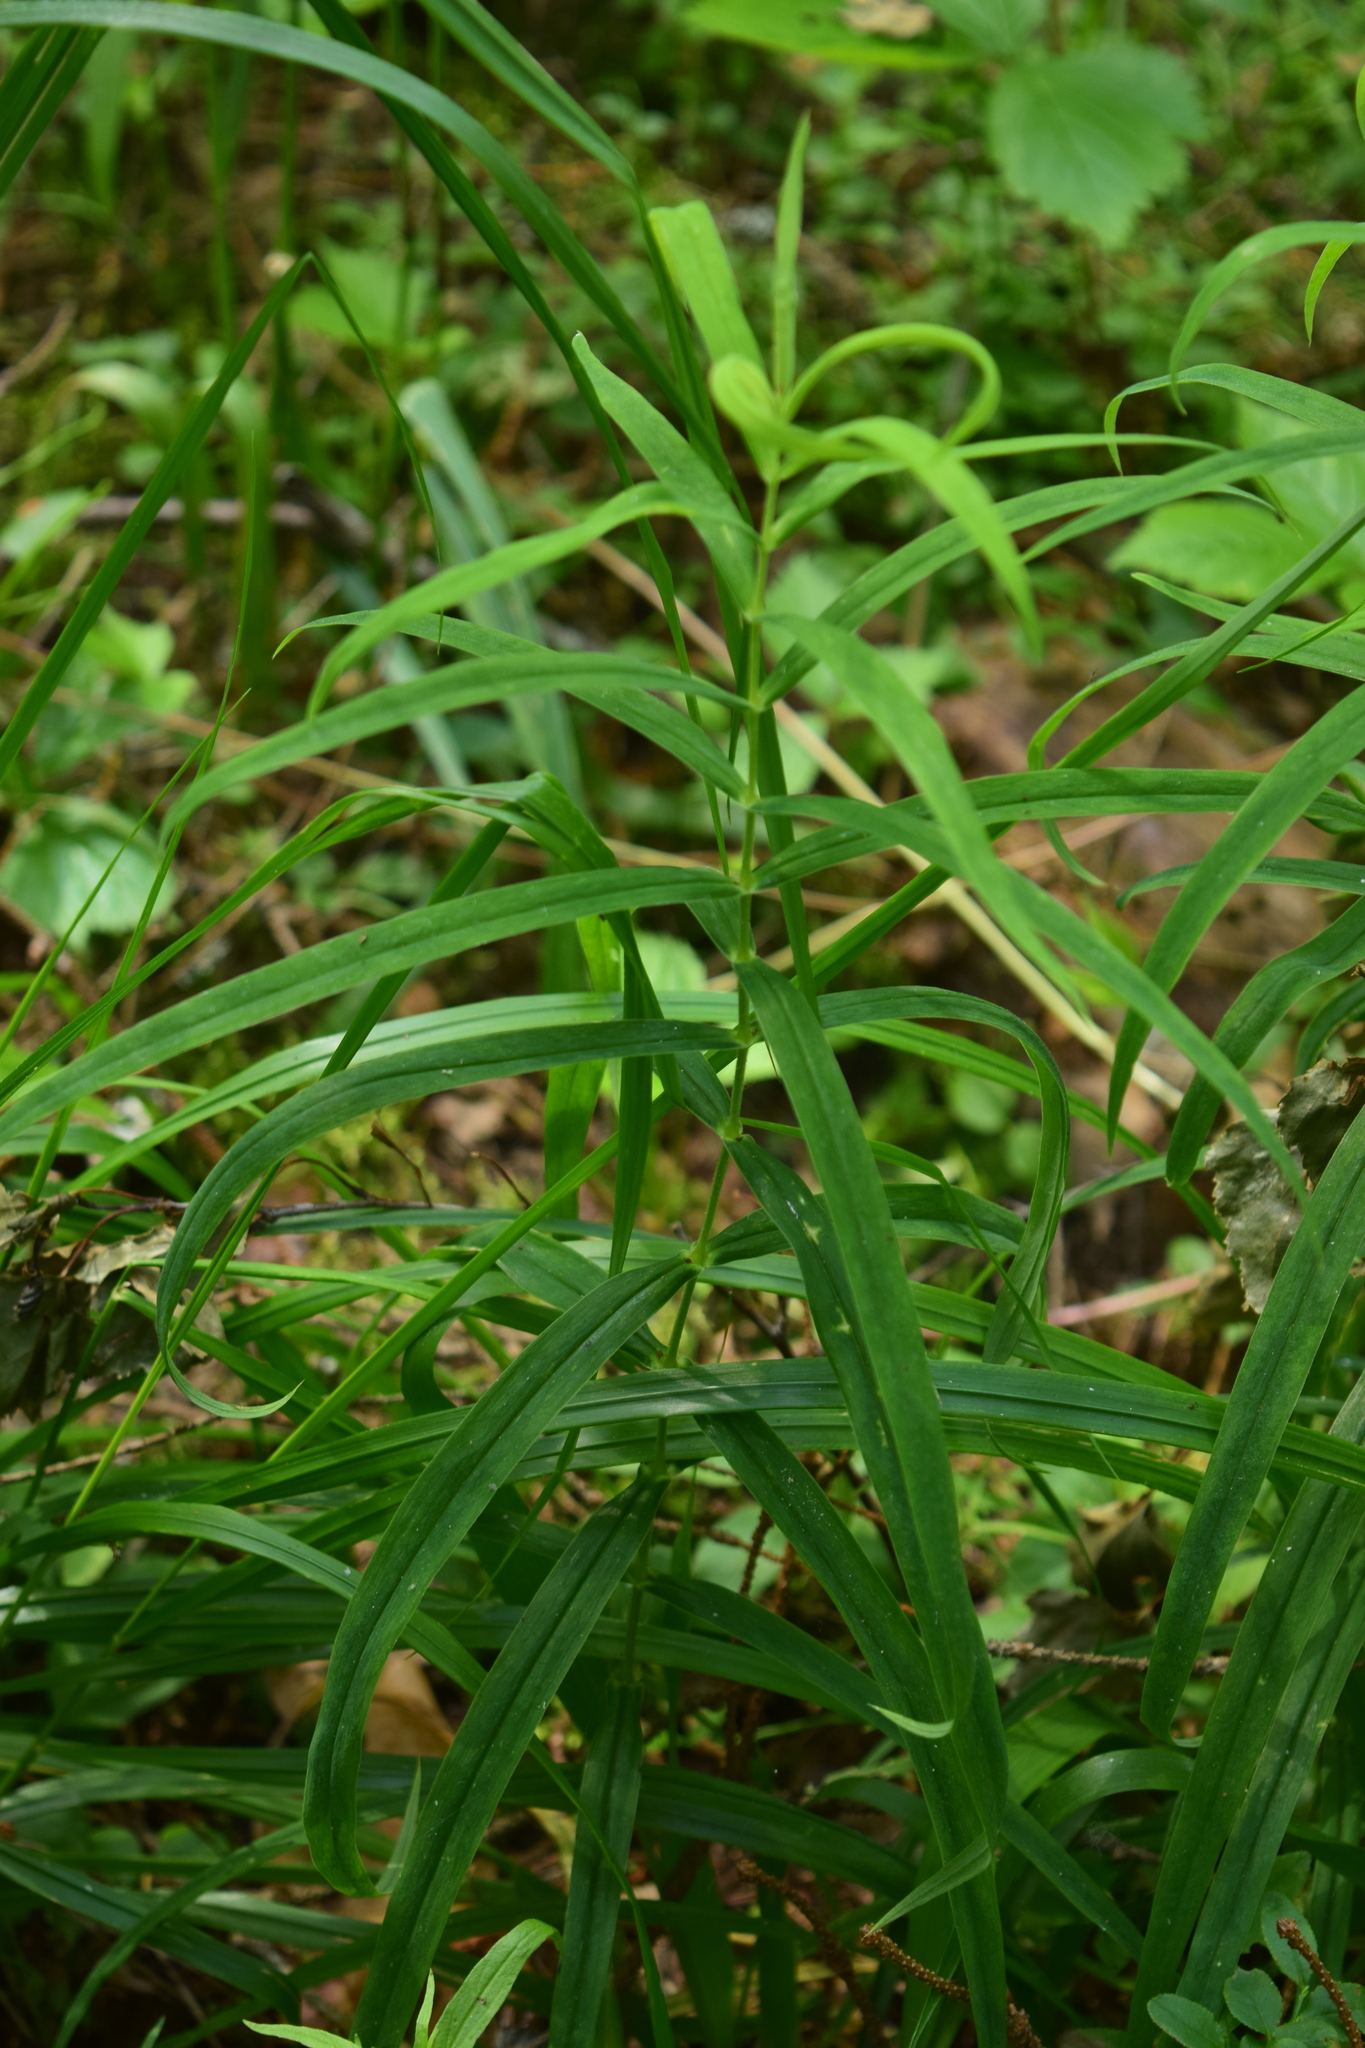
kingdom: Plantae
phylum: Tracheophyta
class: Magnoliopsida
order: Caryophyllales
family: Caryophyllaceae
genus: Rabelera
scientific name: Rabelera holostea
